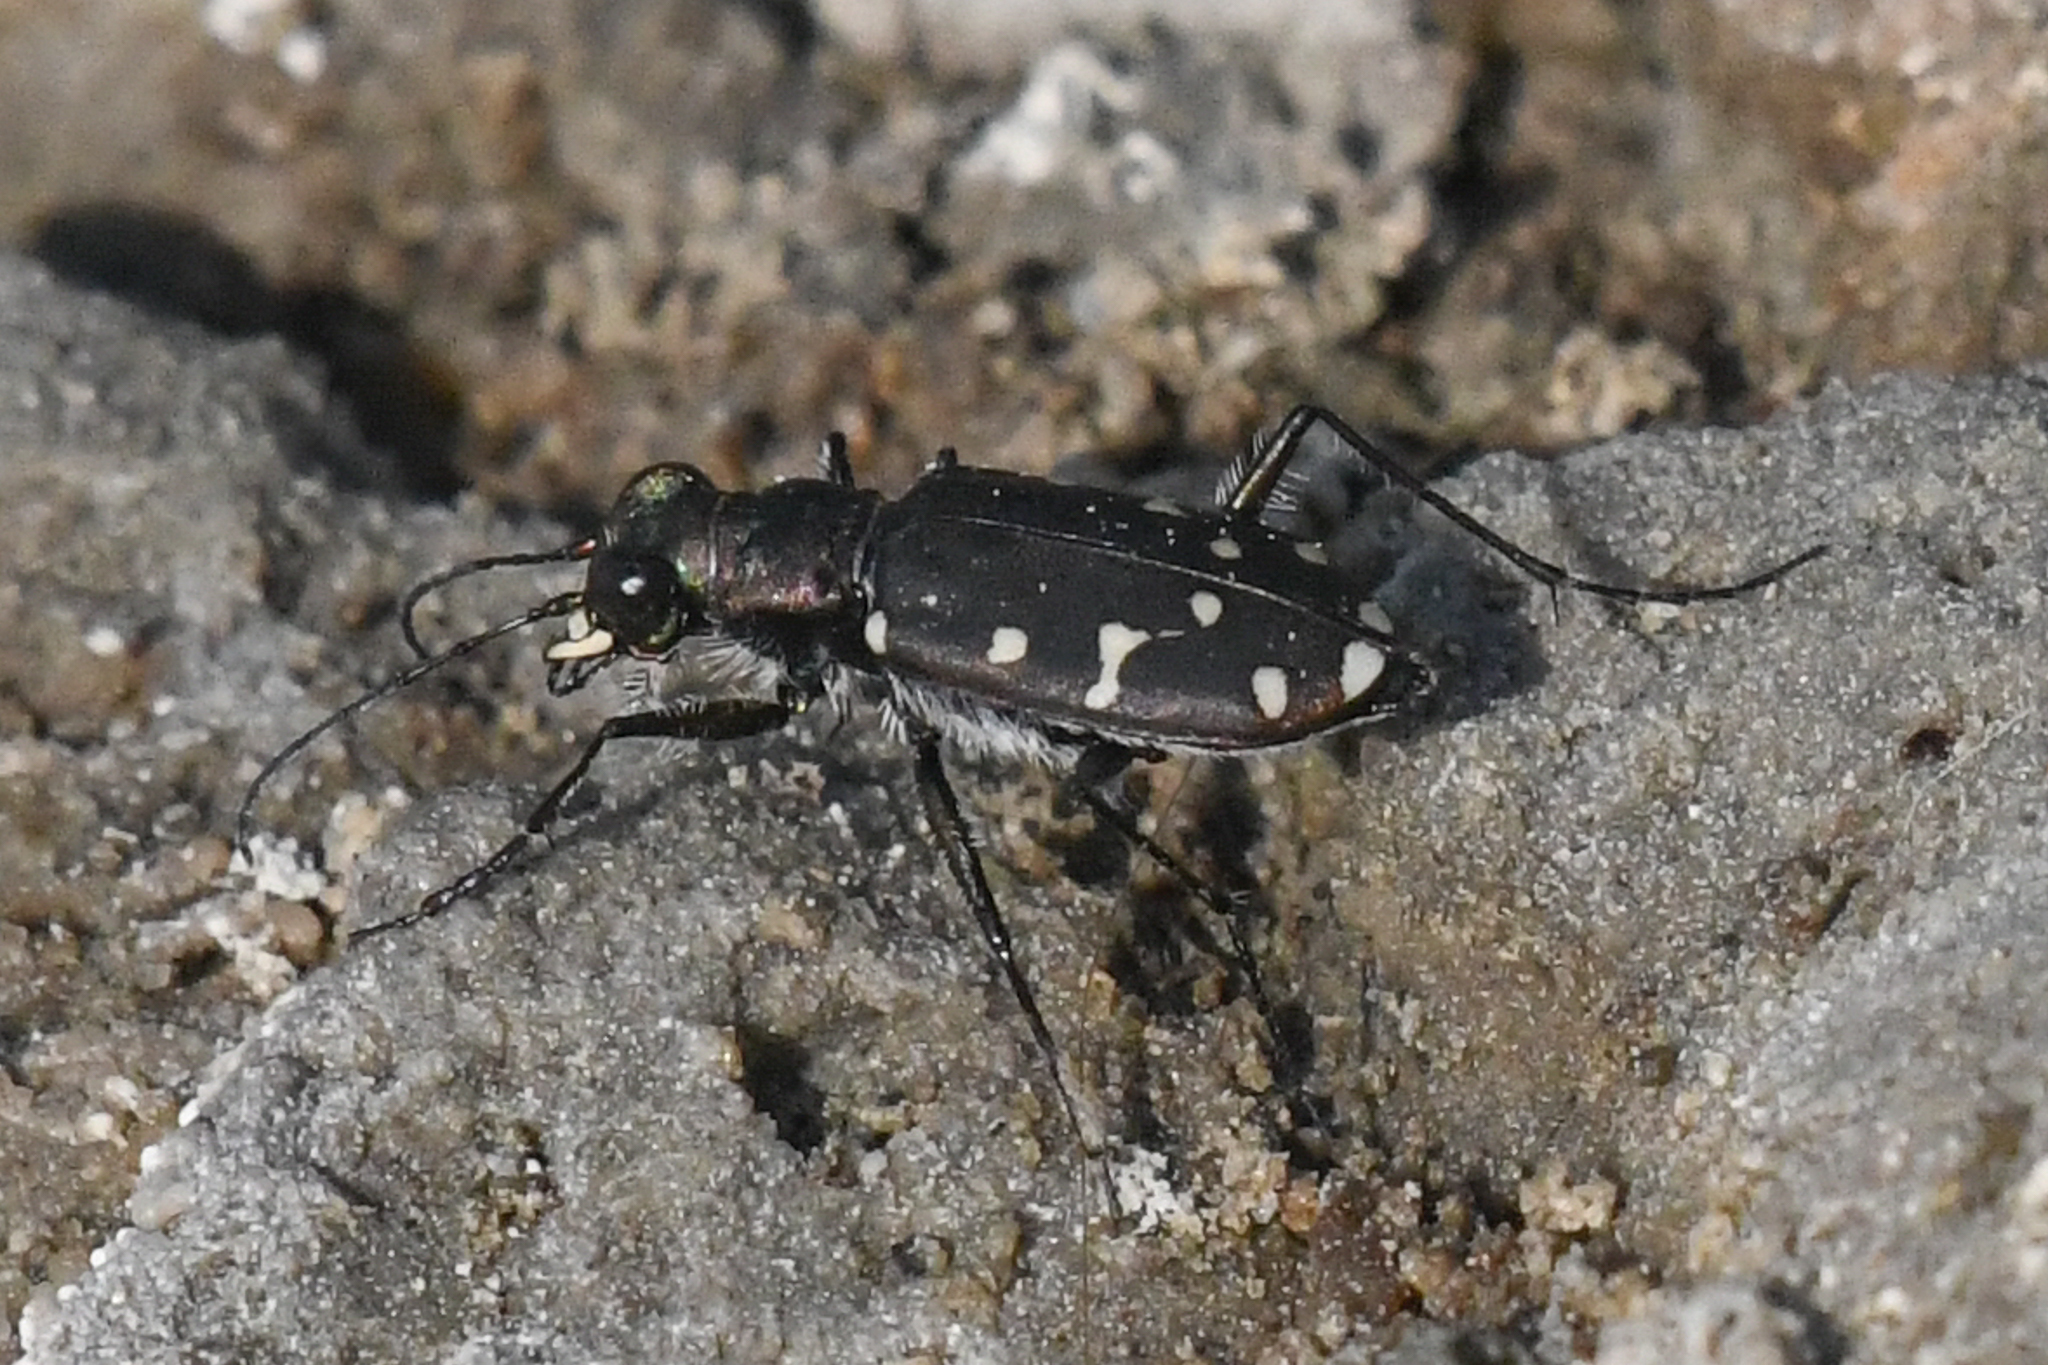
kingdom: Animalia
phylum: Arthropoda
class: Insecta
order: Coleoptera
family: Carabidae
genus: Cicindela
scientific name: Cicindela oregona
